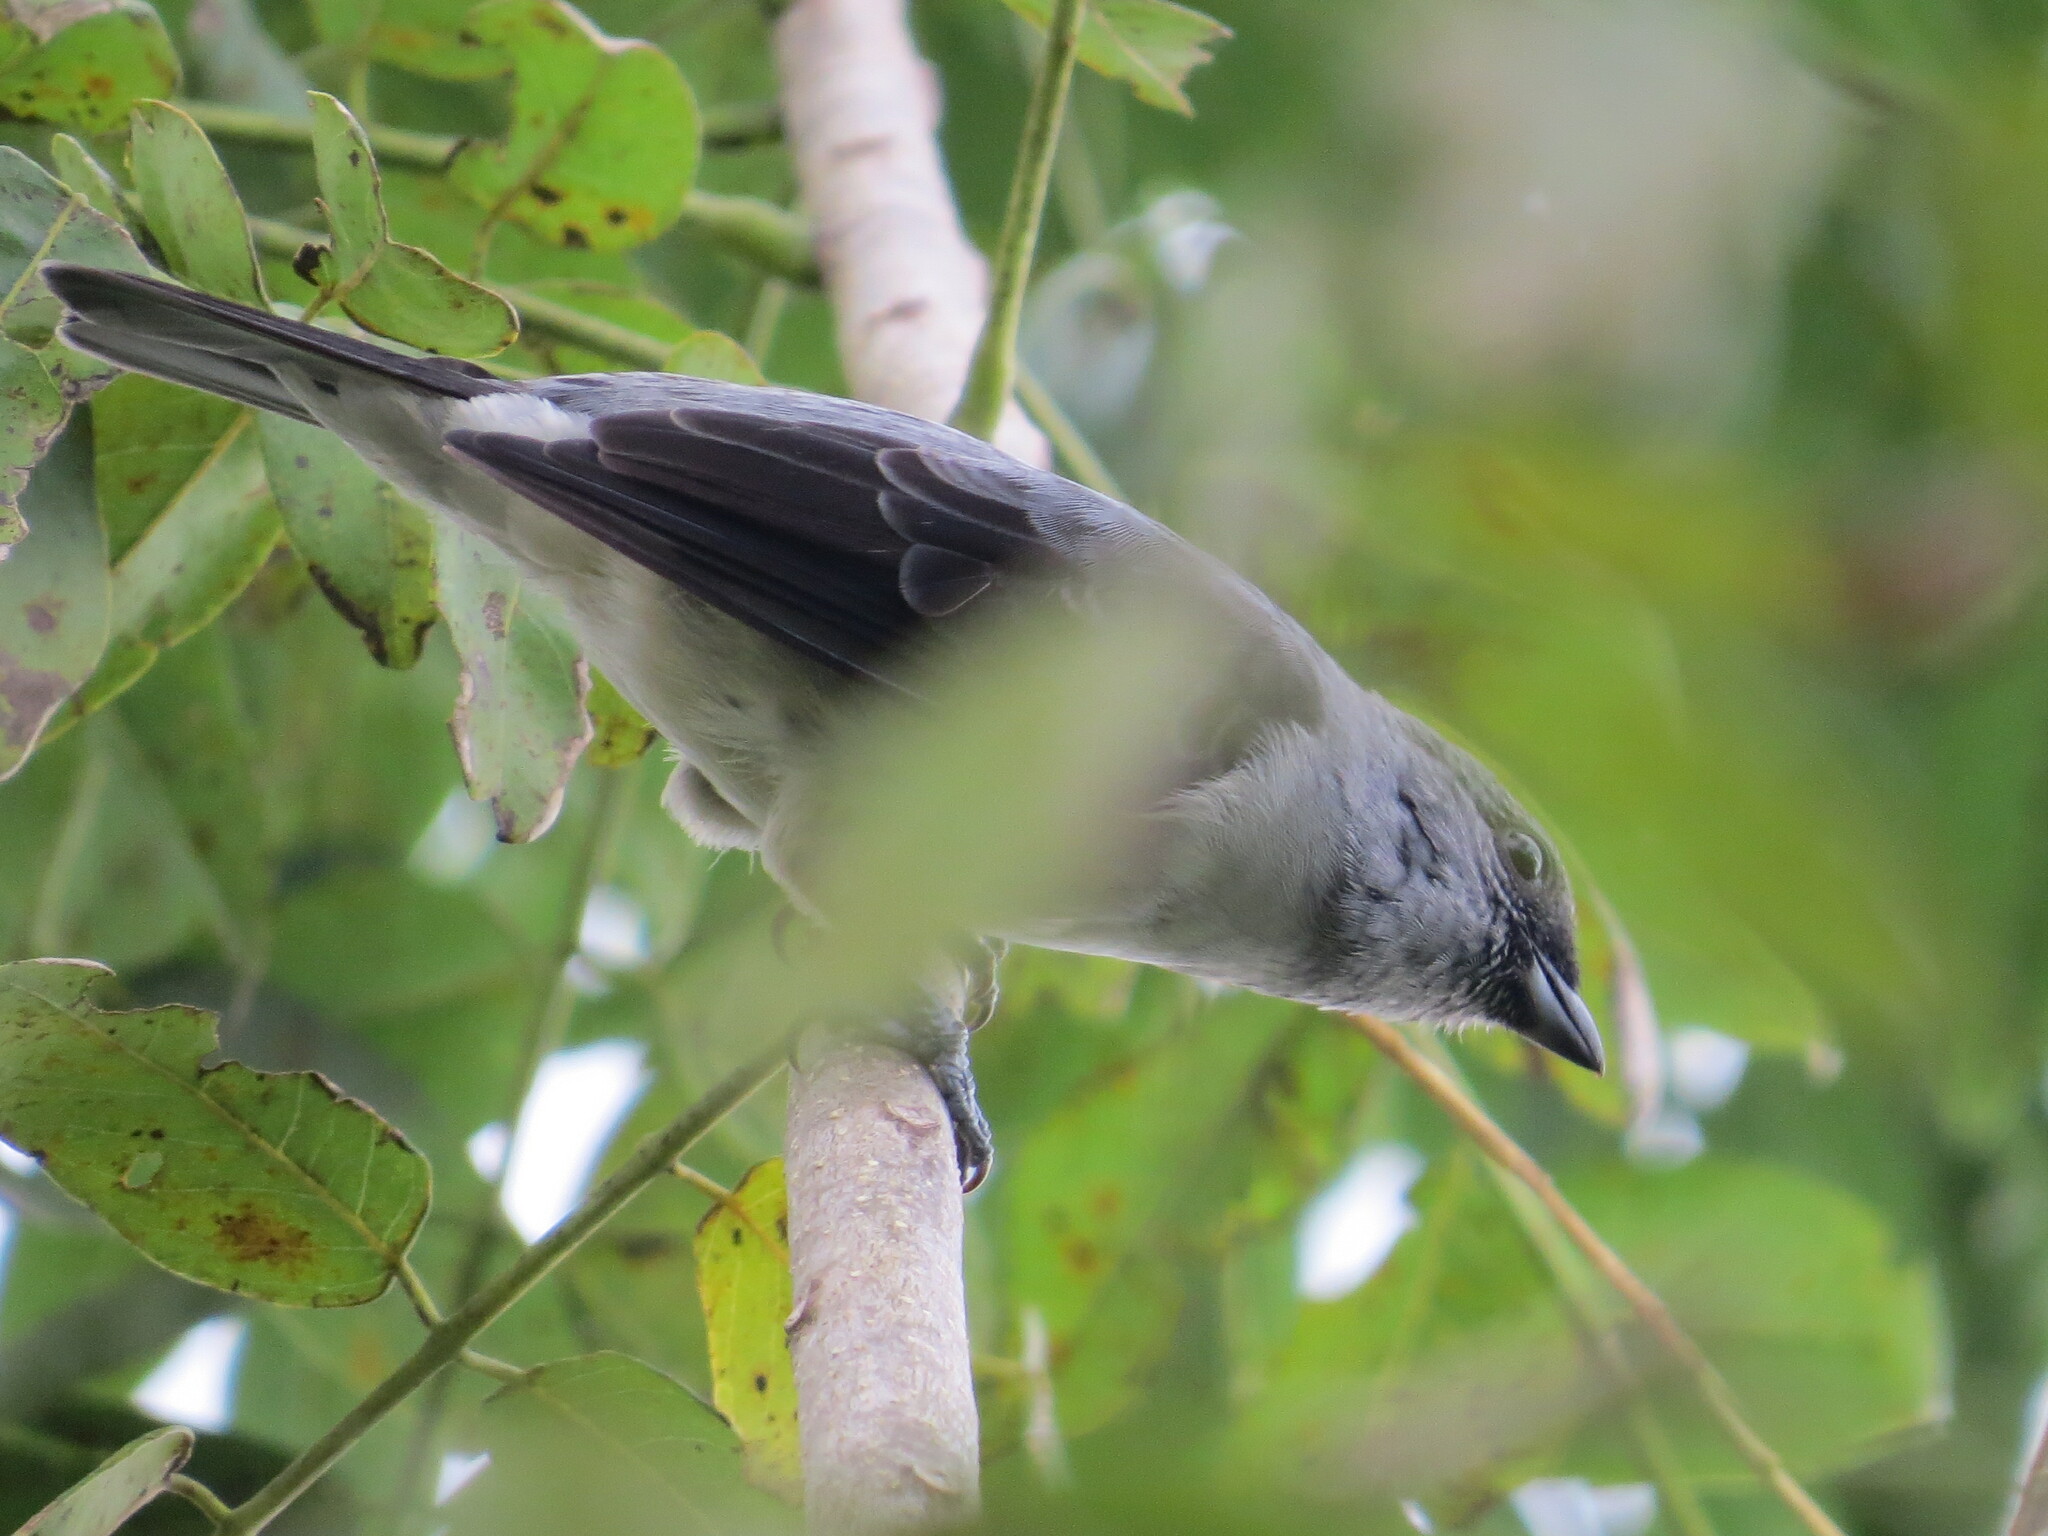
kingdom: Animalia
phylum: Chordata
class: Aves
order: Passeriformes
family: Thraupidae
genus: Tangara
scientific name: Tangara inornata
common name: Plain-colored tanager
